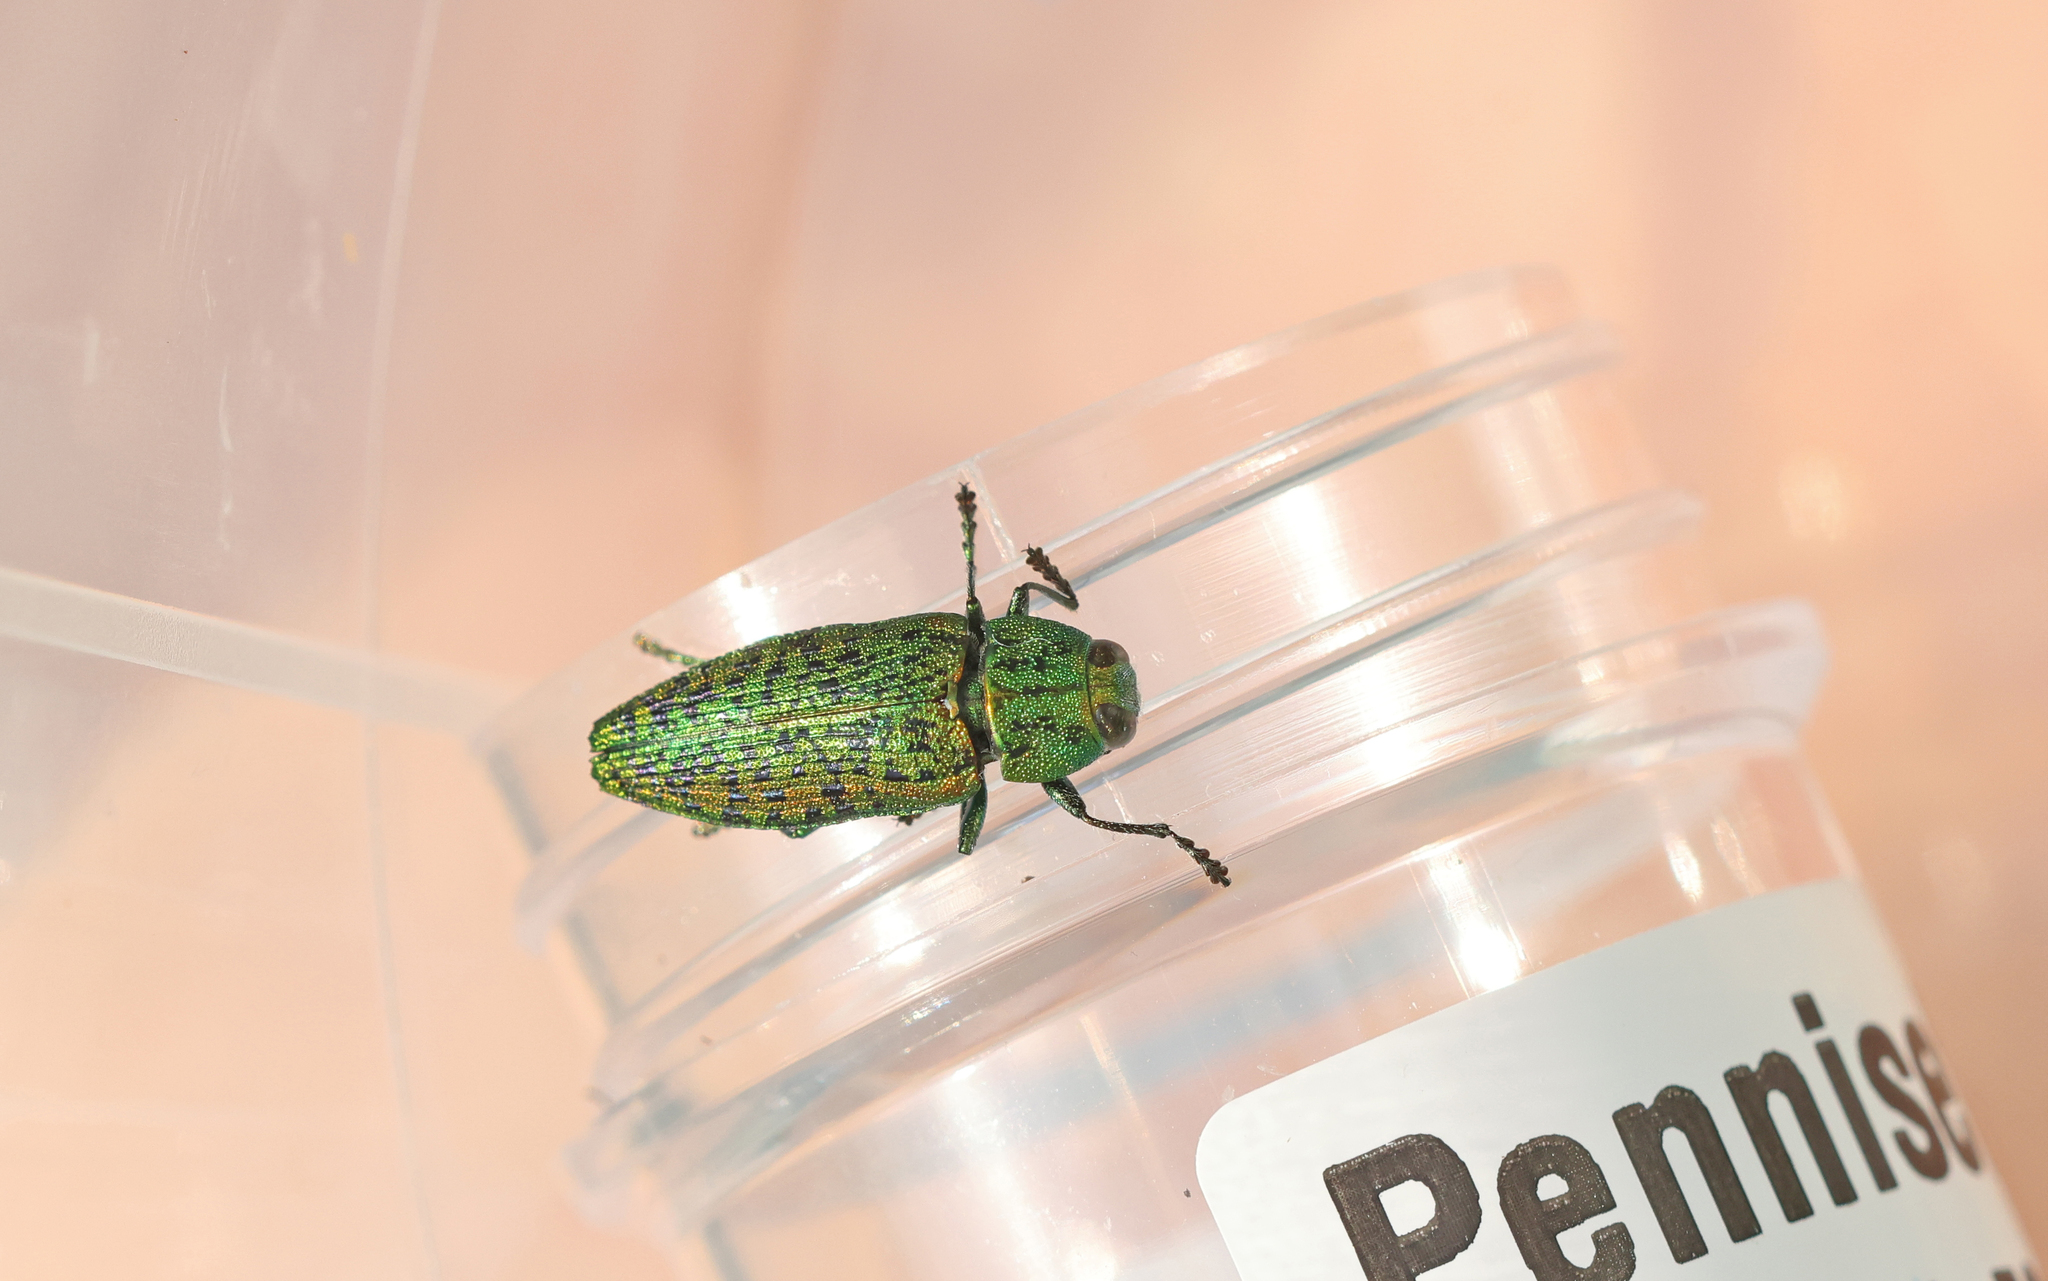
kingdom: Animalia
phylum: Arthropoda
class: Insecta
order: Coleoptera
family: Buprestidae
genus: Lamprodila
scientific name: Lamprodila decipiens
